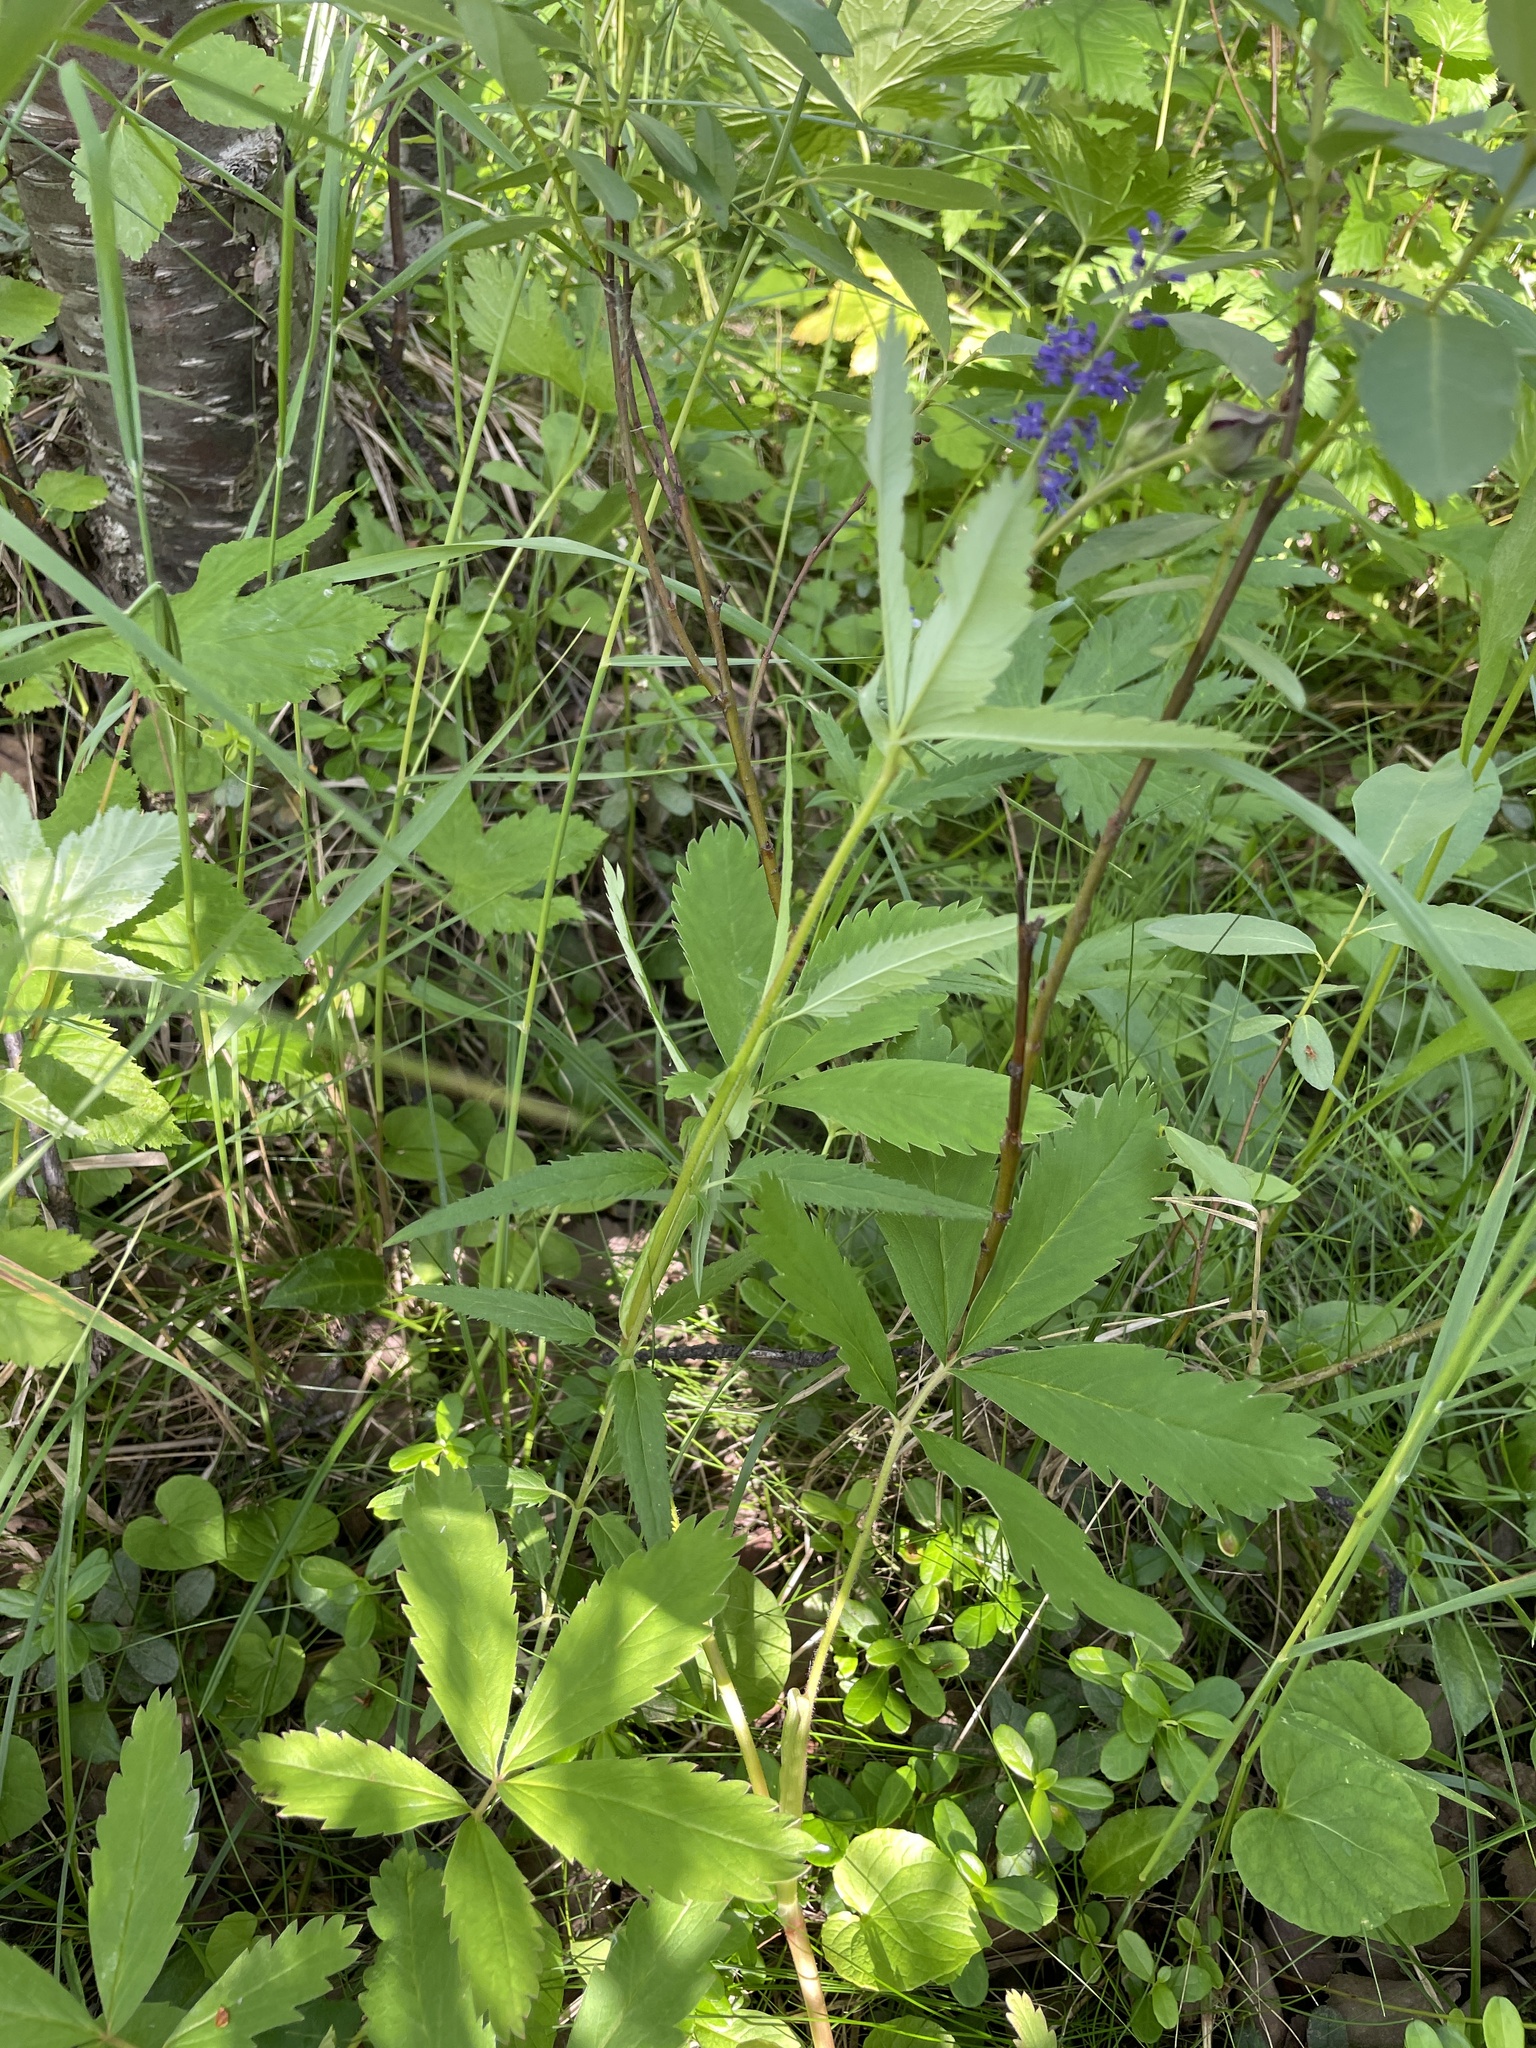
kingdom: Plantae
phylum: Tracheophyta
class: Magnoliopsida
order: Lamiales
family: Plantaginaceae
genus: Veronica
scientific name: Veronica longifolia
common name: Garden speedwell
